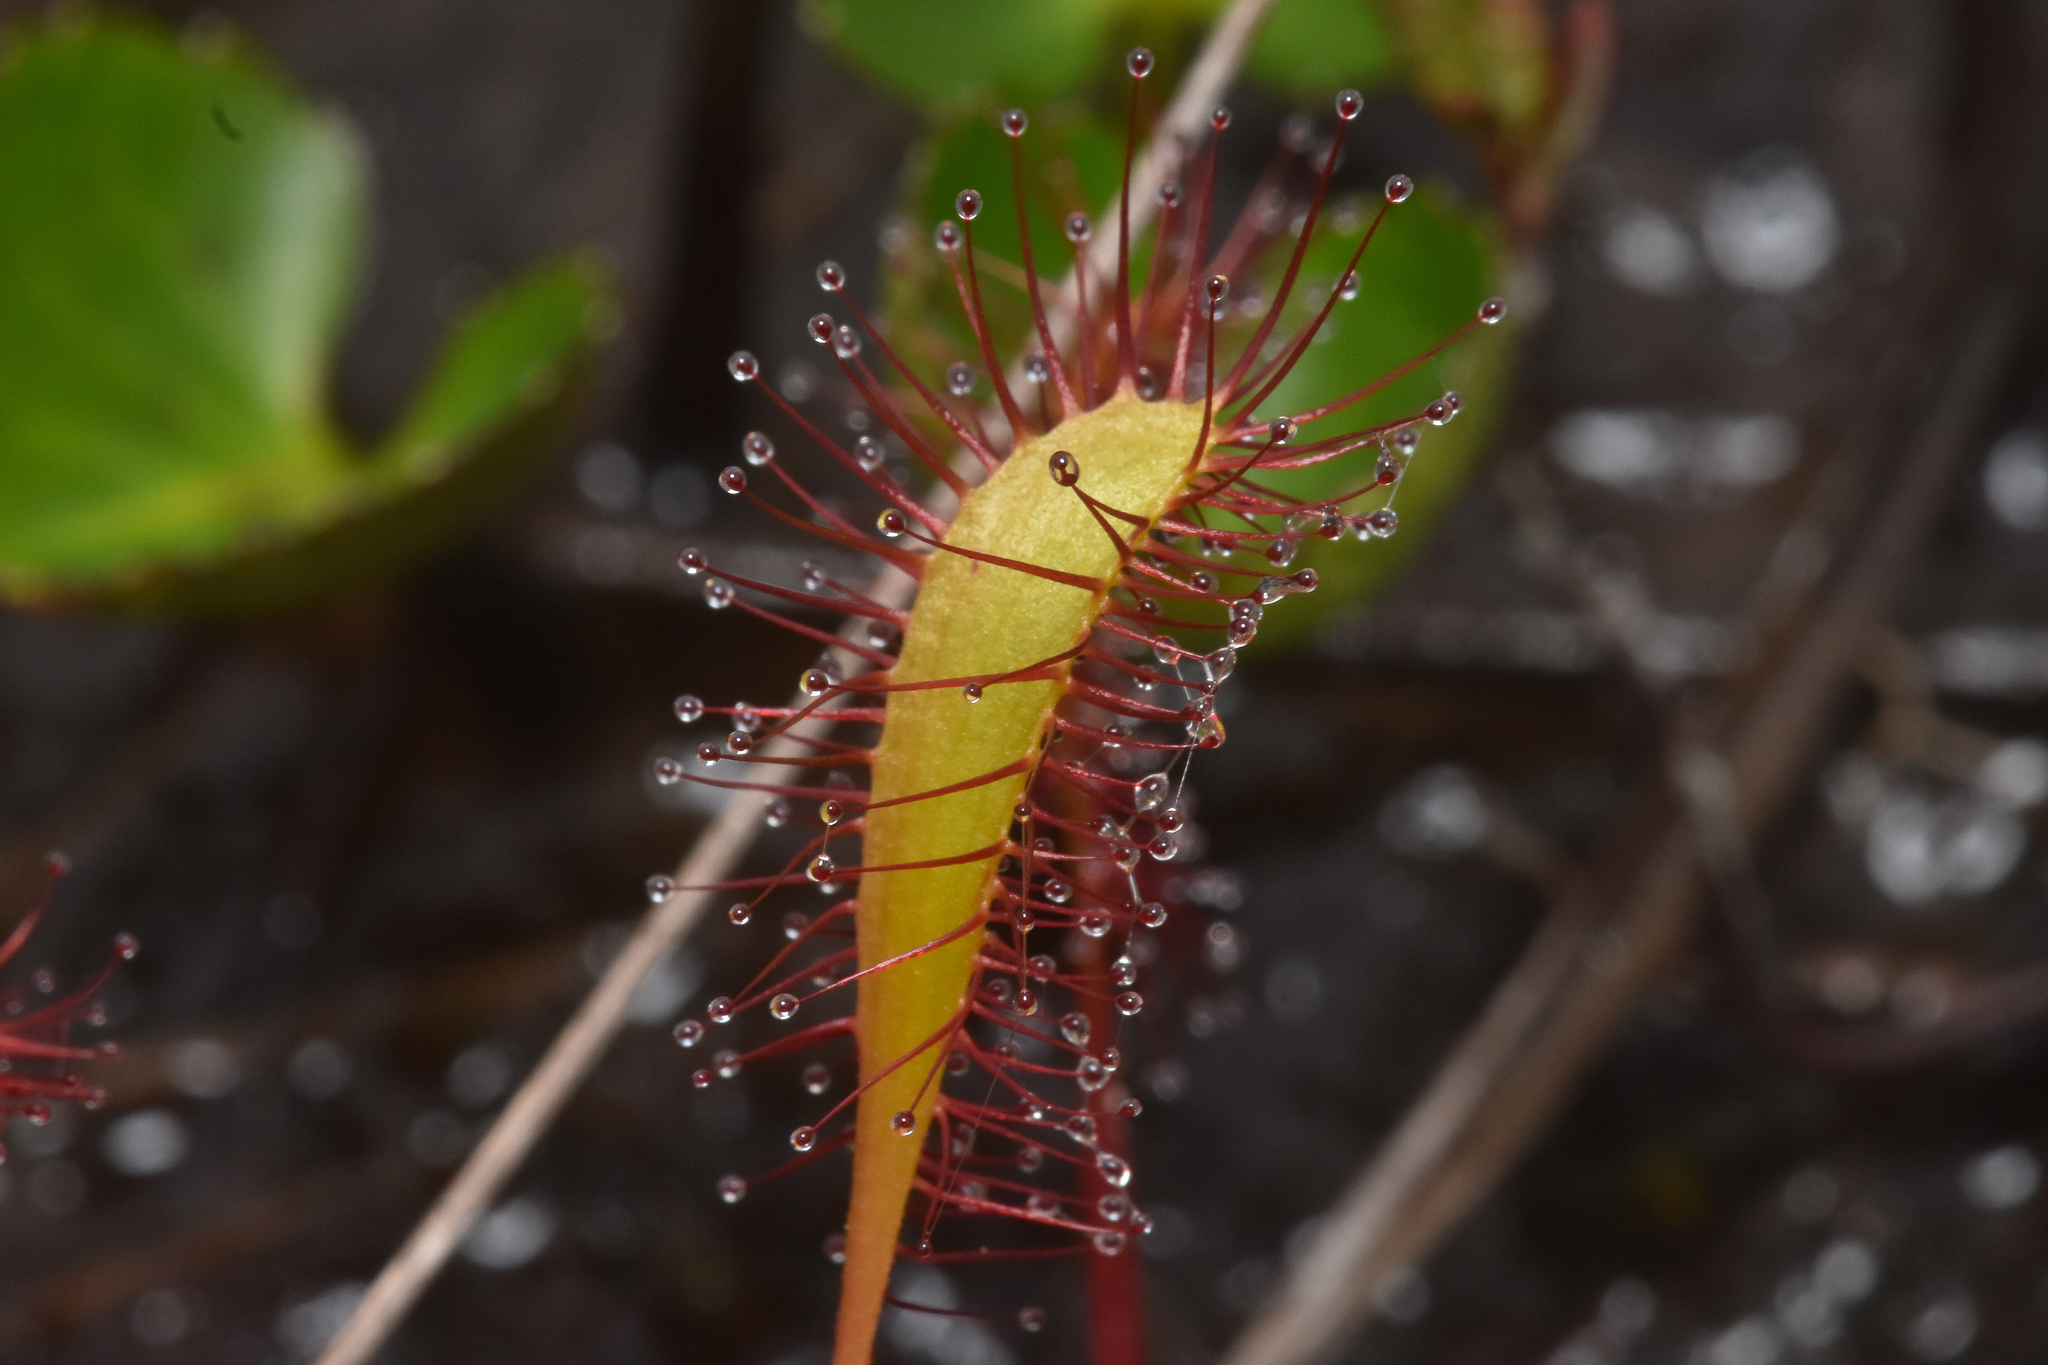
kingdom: Plantae
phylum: Tracheophyta
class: Magnoliopsida
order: Caryophyllales
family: Droseraceae
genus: Drosera
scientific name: Drosera anglica
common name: Great sundew
